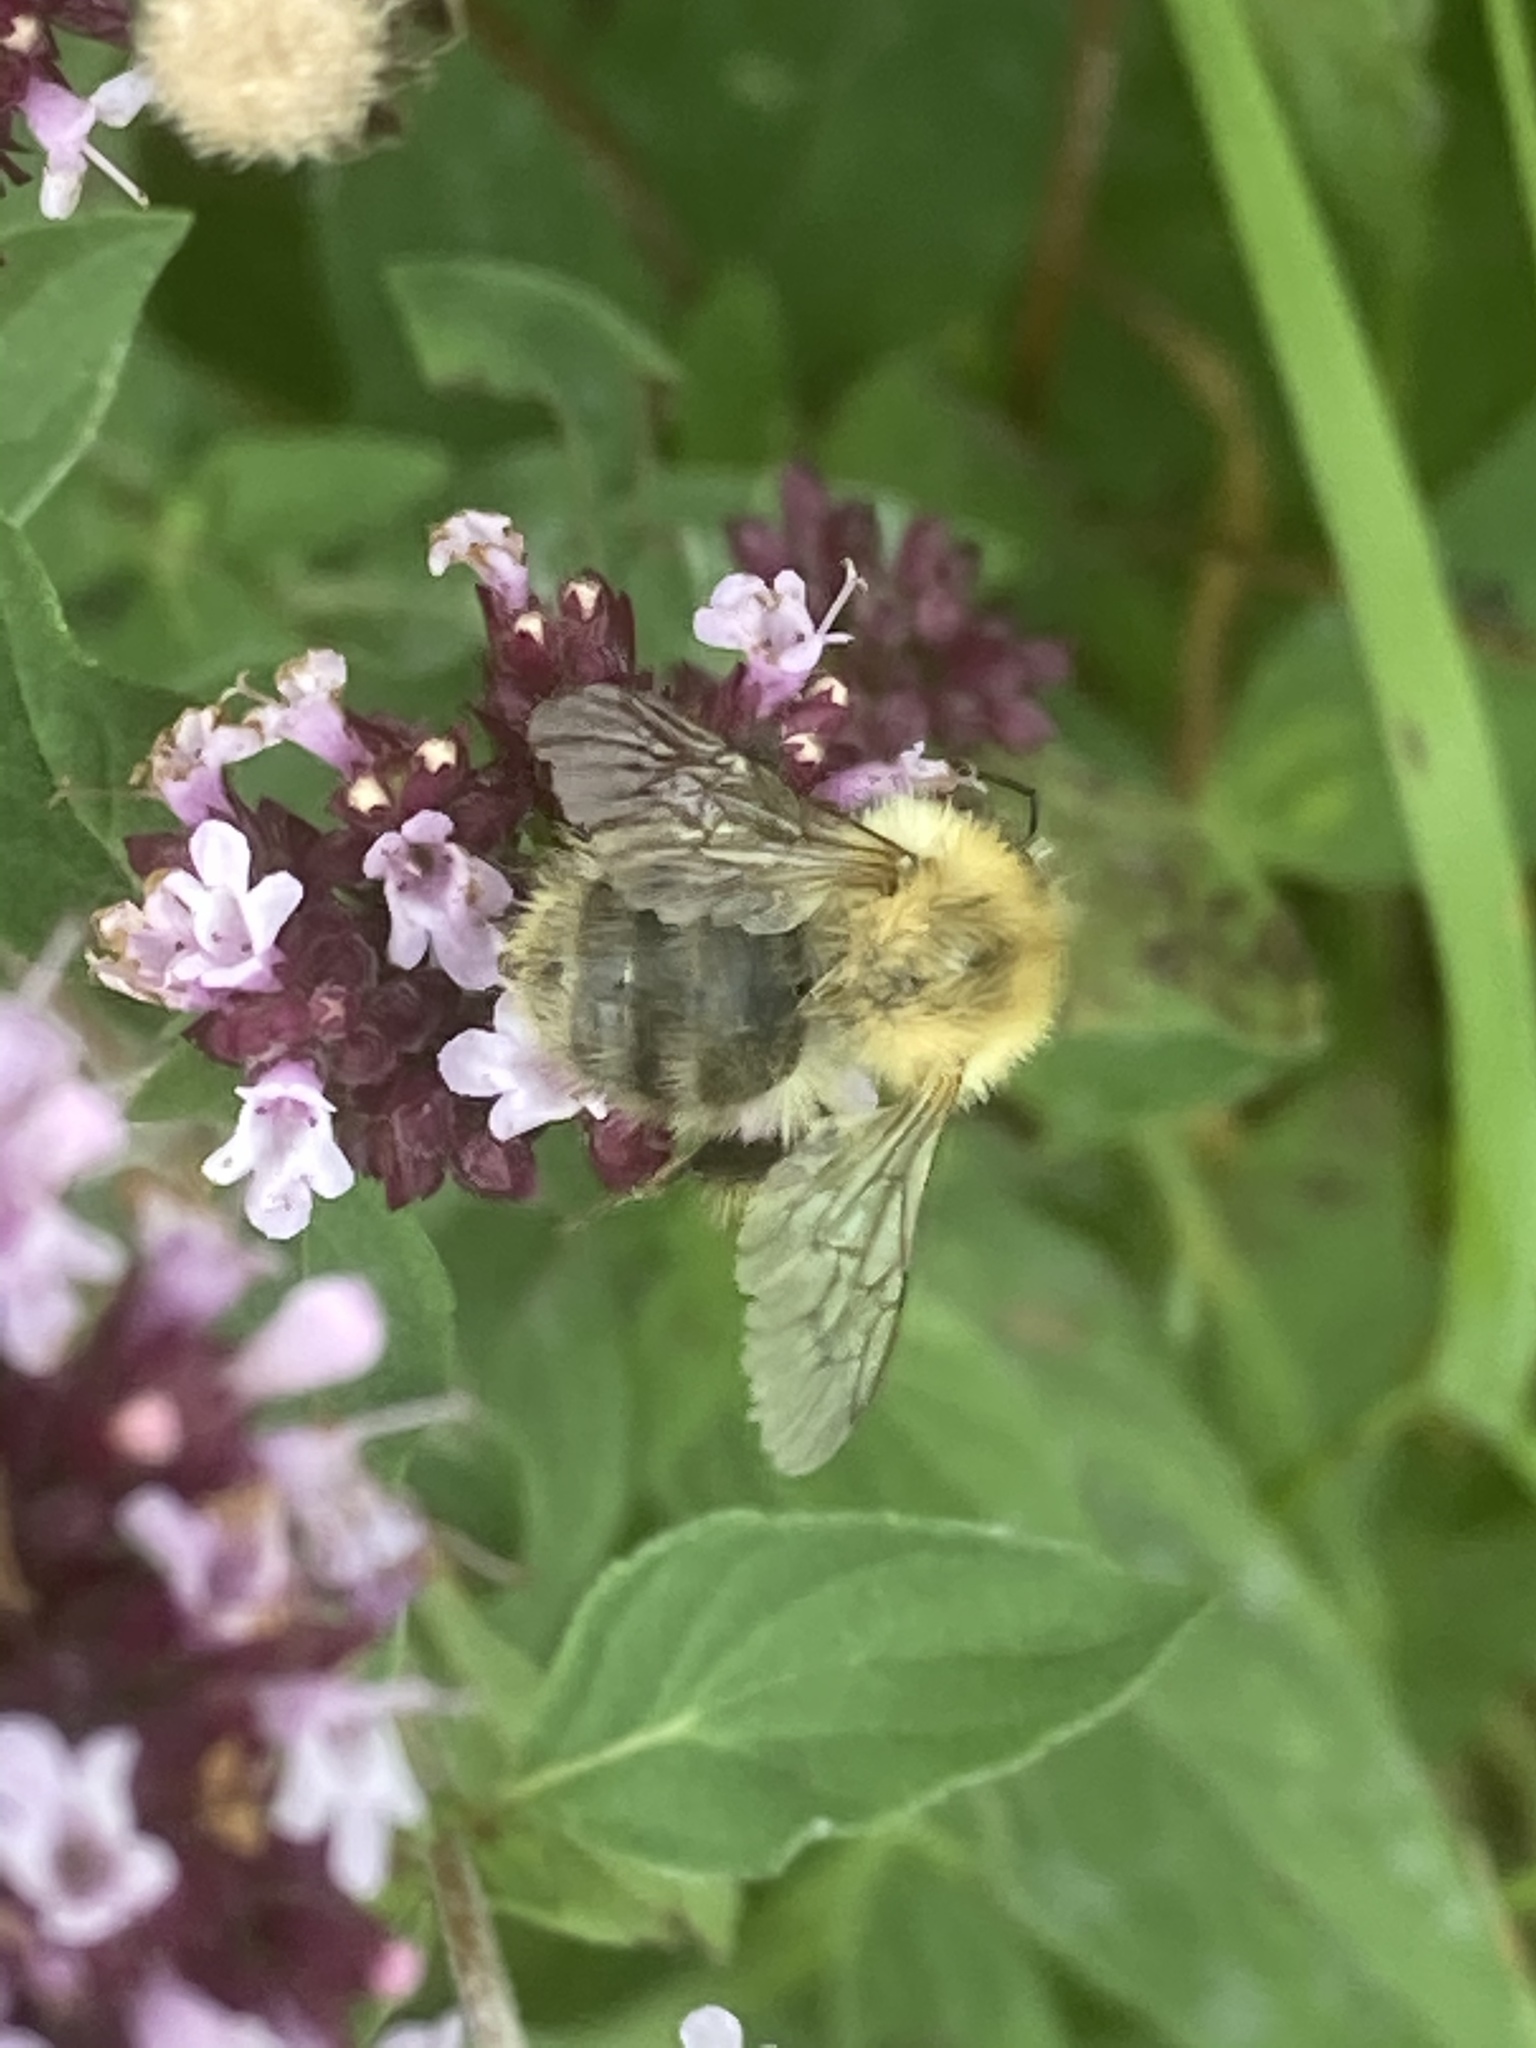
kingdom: Animalia
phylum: Arthropoda
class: Insecta
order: Hymenoptera
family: Apidae
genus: Bombus
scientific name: Bombus pascuorum
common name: Common carder bee
